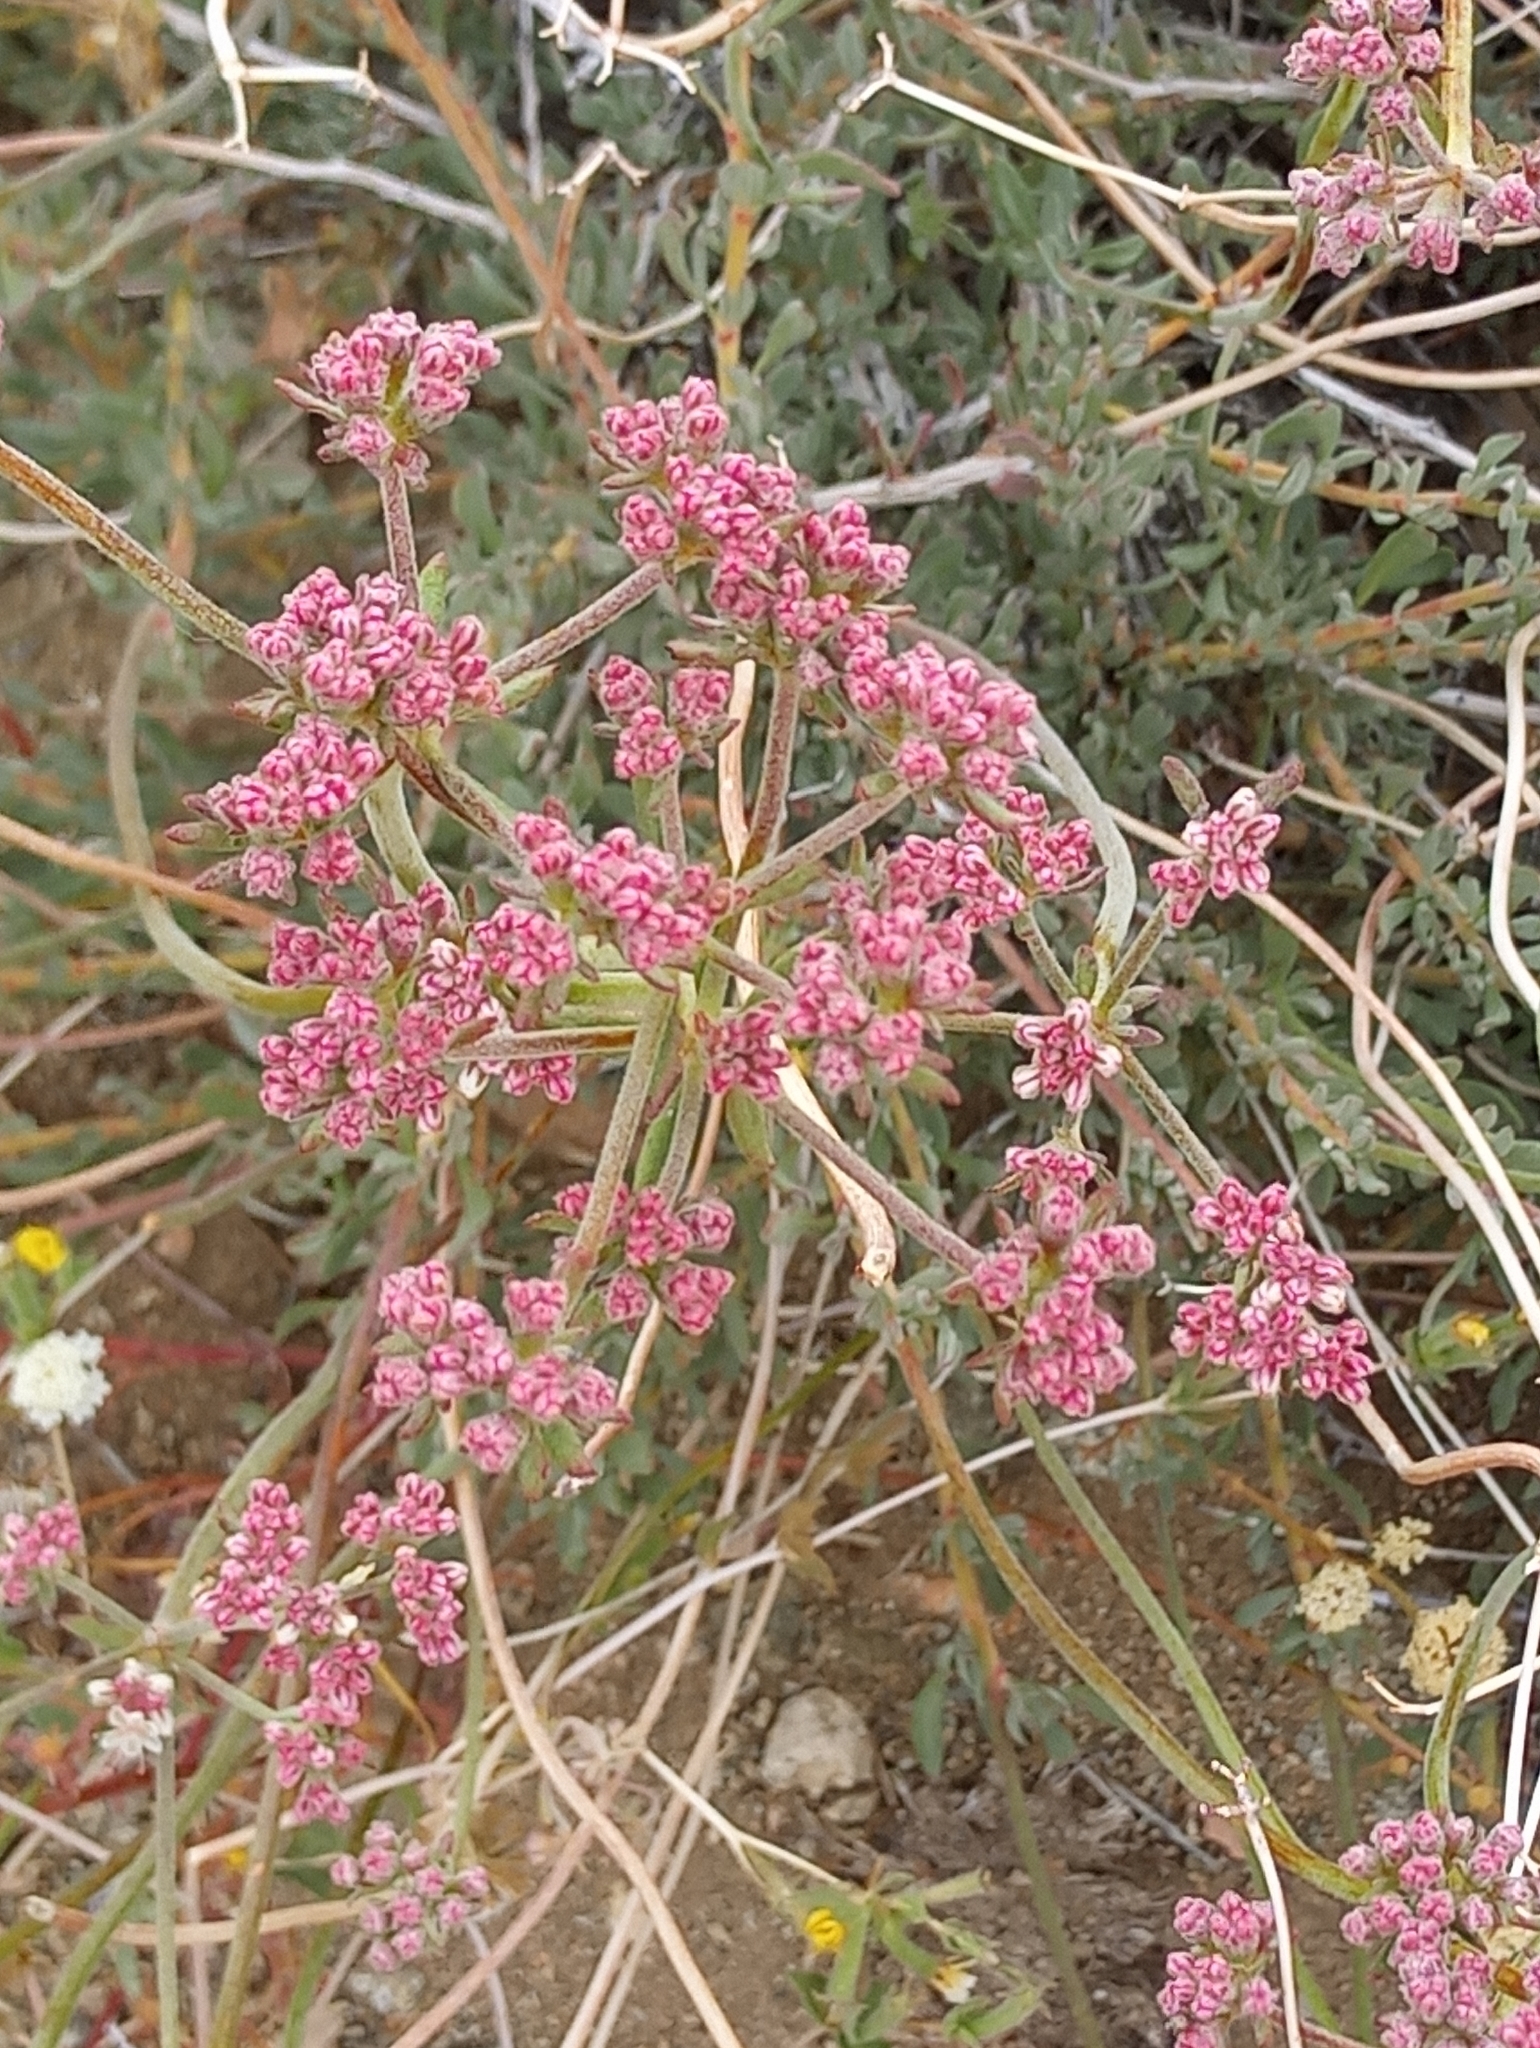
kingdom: Plantae
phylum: Tracheophyta
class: Magnoliopsida
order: Caryophyllales
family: Polygonaceae
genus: Eriogonum
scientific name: Eriogonum fasciculatum
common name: California wild buckwheat
